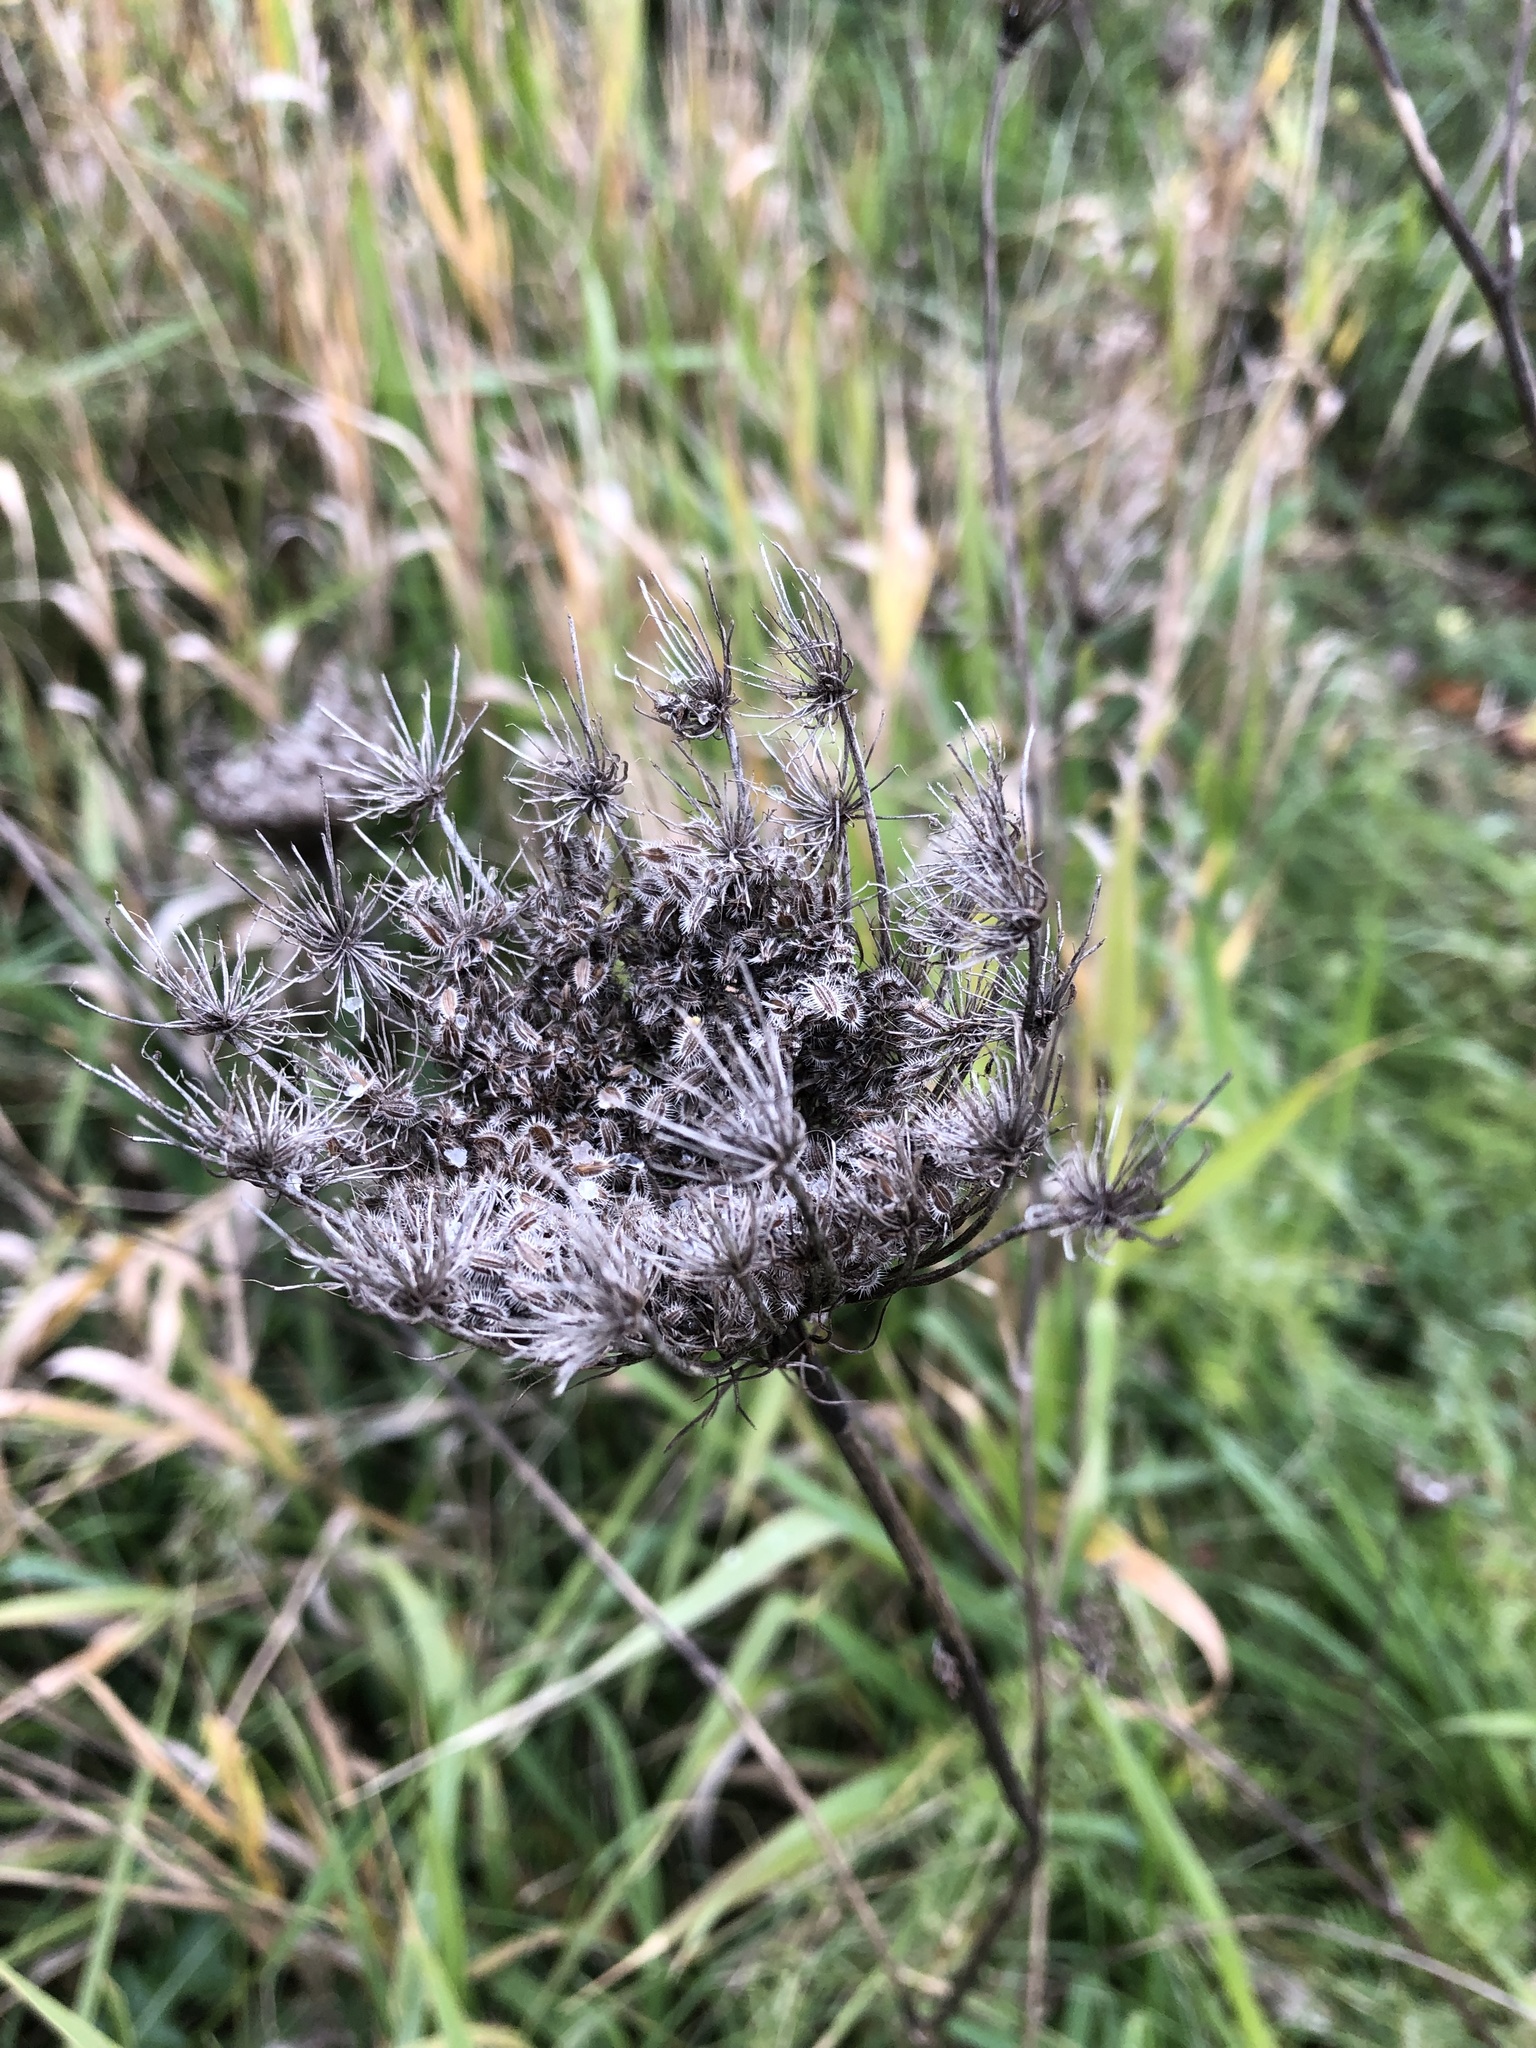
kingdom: Plantae
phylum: Tracheophyta
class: Magnoliopsida
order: Apiales
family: Apiaceae
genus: Daucus
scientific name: Daucus carota
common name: Wild carrot
